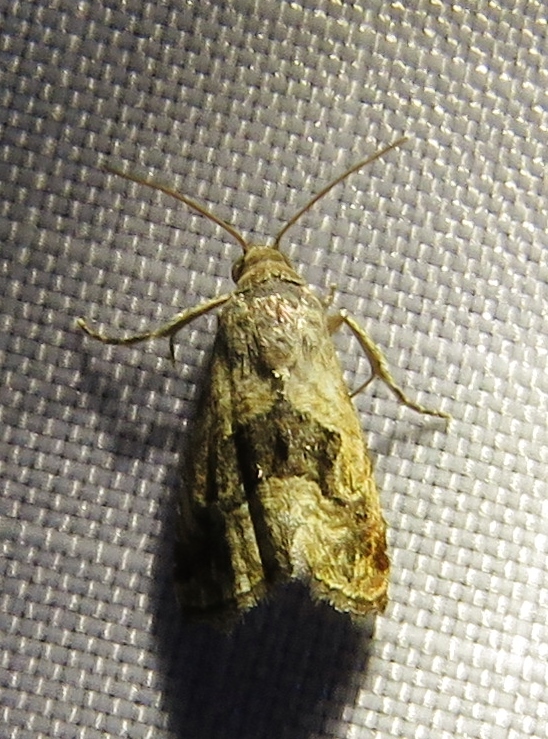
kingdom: Animalia
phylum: Arthropoda
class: Insecta
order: Lepidoptera
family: Noctuidae
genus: Tripudia
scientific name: Tripudia quadrifera
